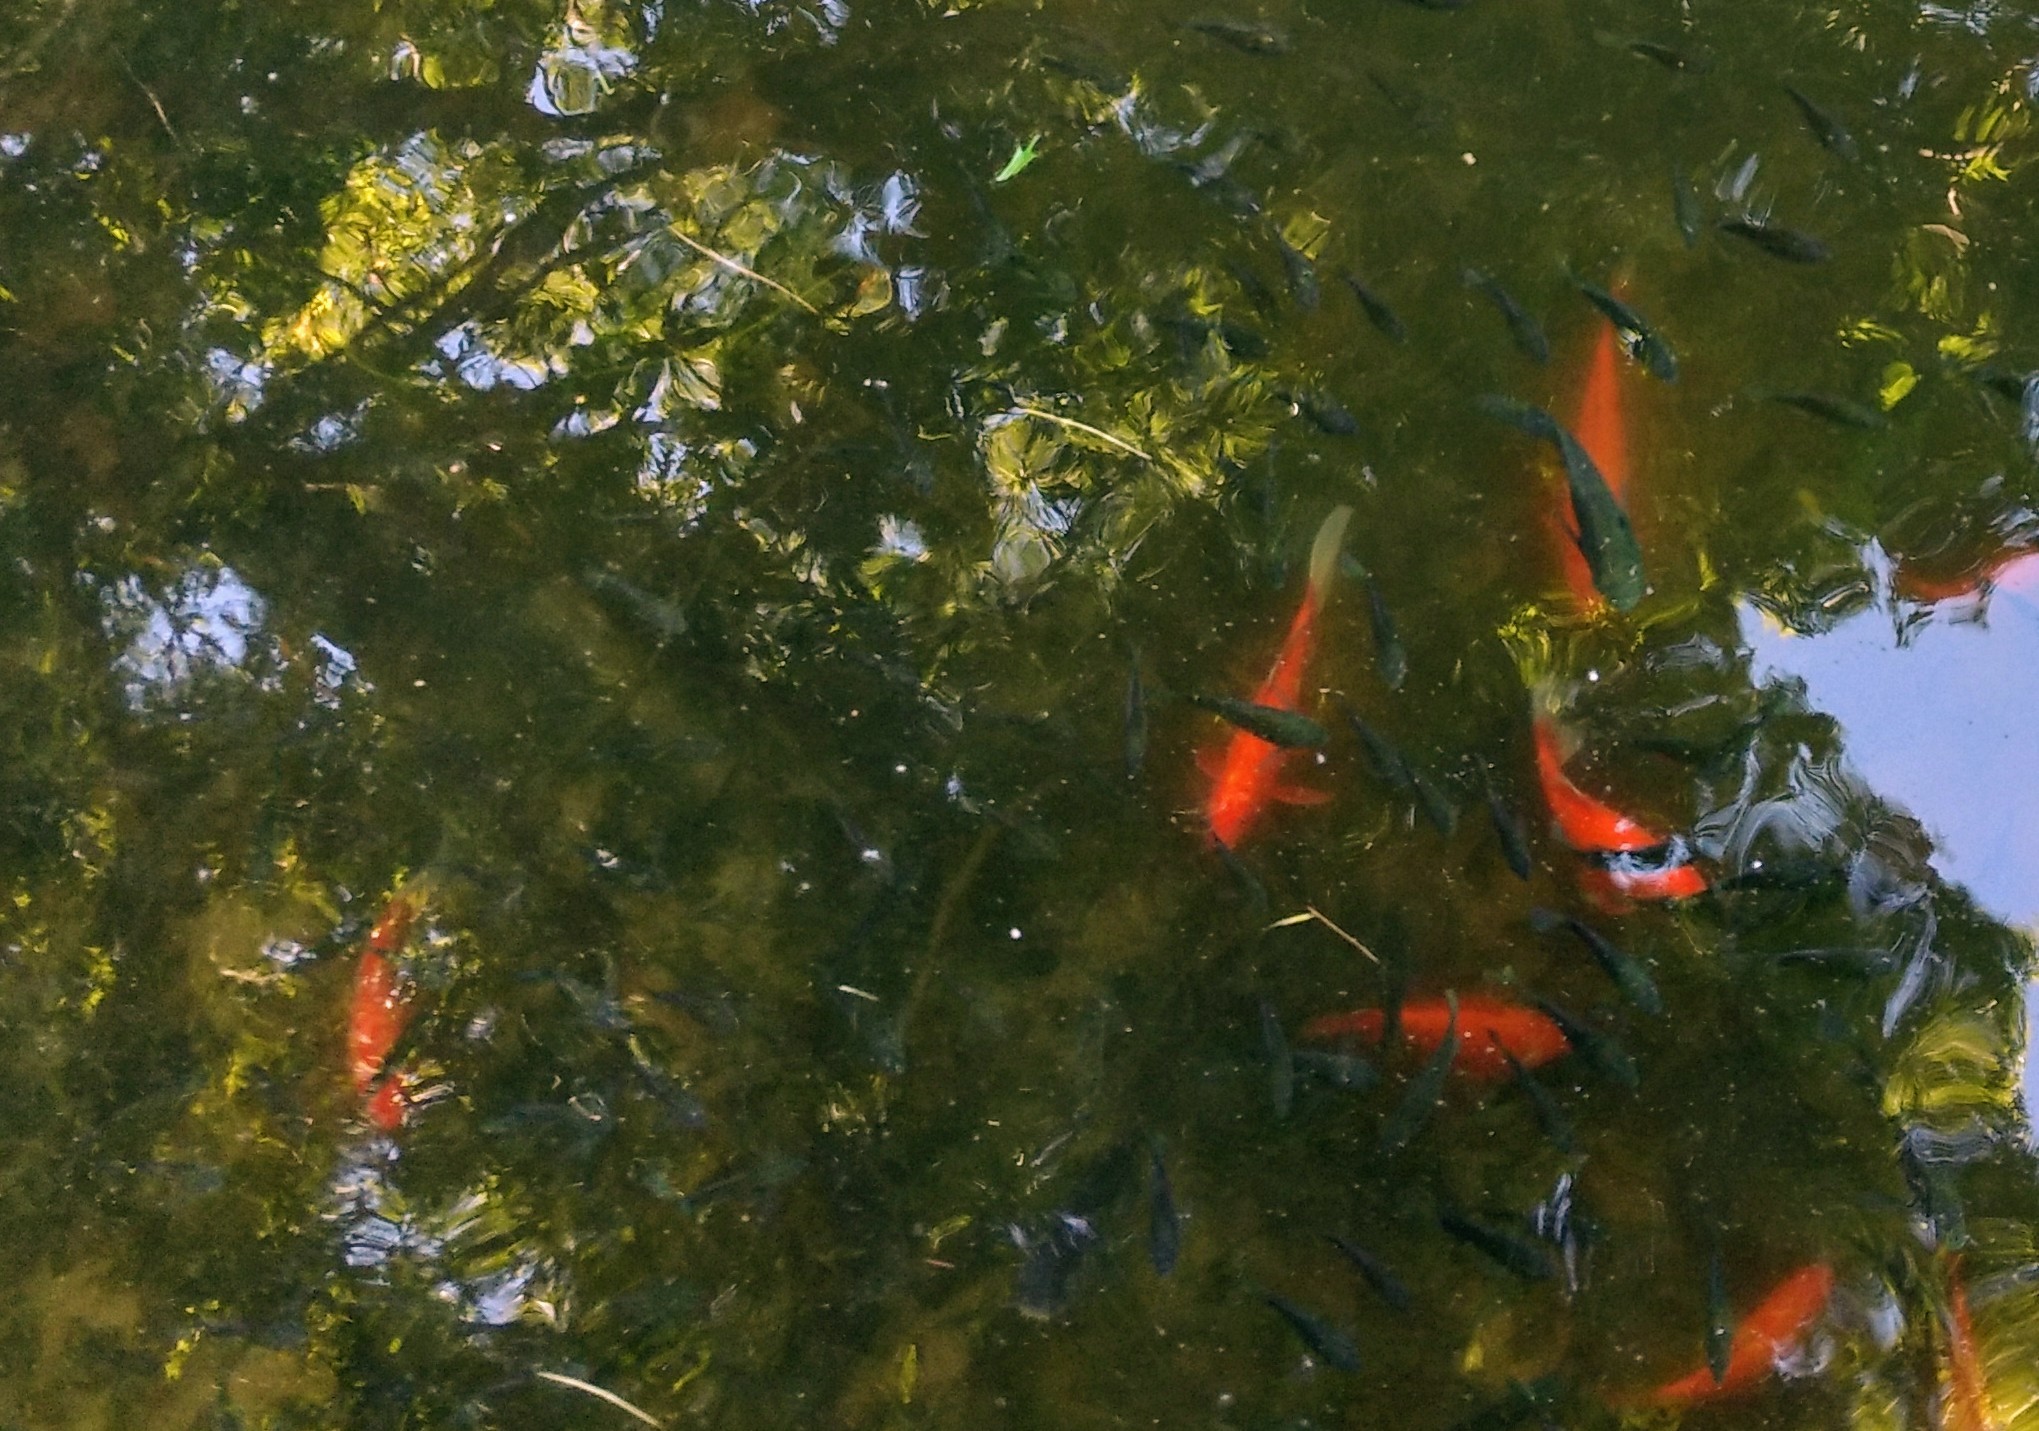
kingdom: Animalia
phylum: Chordata
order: Cypriniformes
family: Cyprinidae
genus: Carassius
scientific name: Carassius auratus
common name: Goldfish
